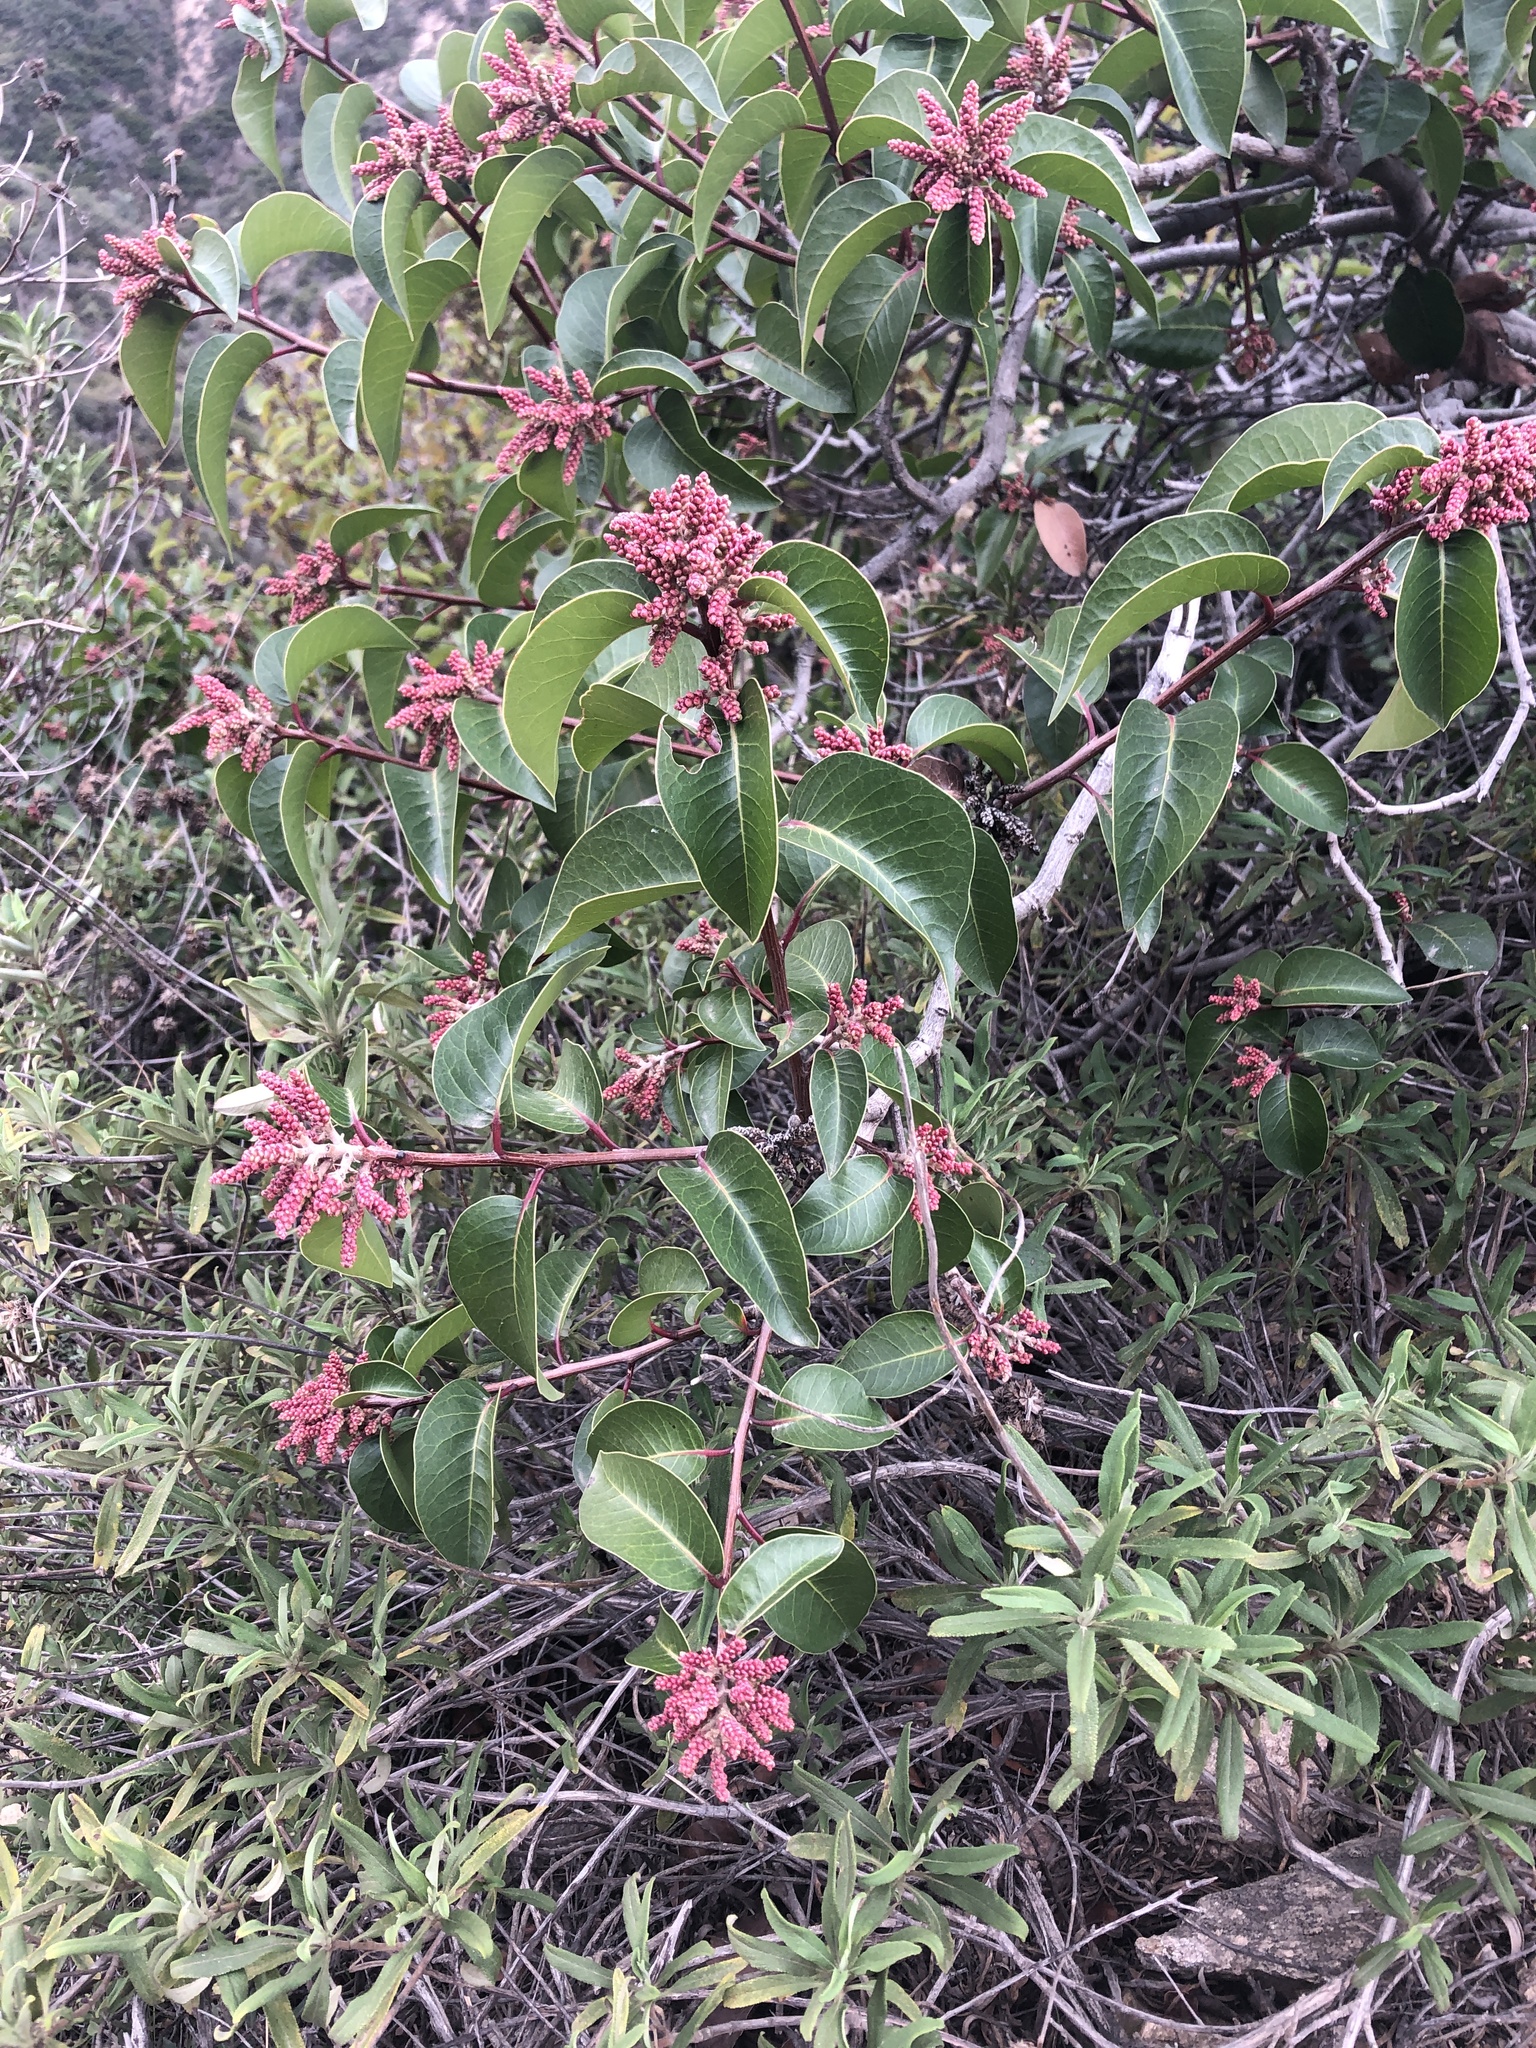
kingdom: Plantae
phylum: Tracheophyta
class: Magnoliopsida
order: Sapindales
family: Anacardiaceae
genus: Rhus
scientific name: Rhus ovata
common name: Sugar sumac
